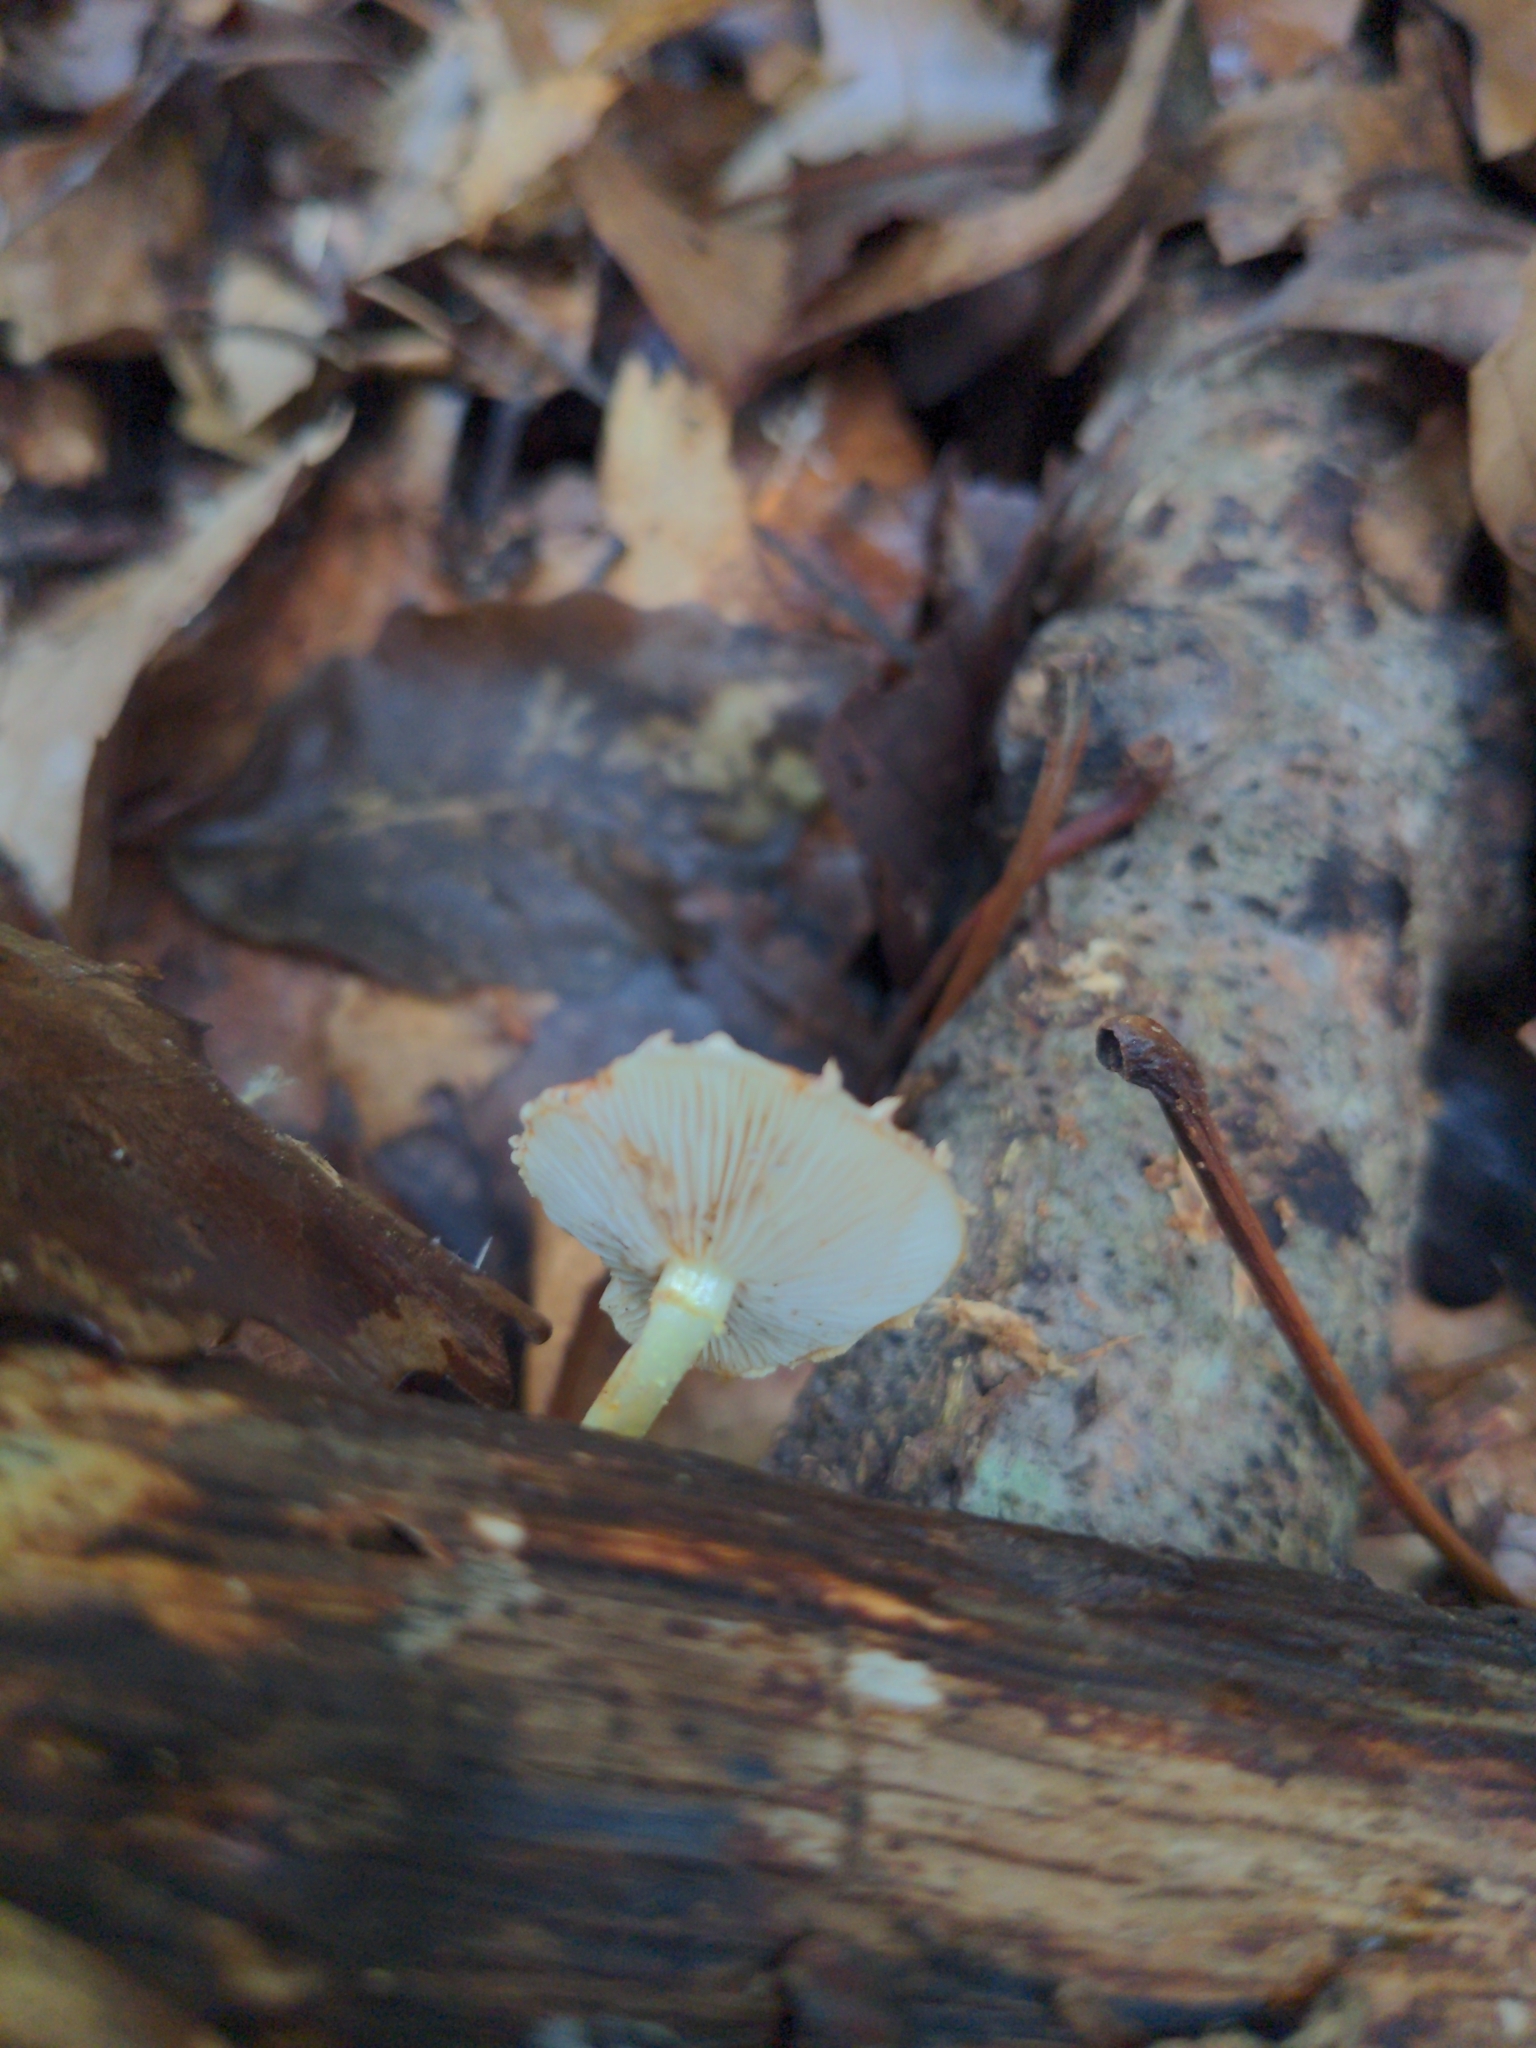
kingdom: Fungi
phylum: Basidiomycota
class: Agaricomycetes
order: Agaricales
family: Strophariaceae
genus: Pholiota
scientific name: Pholiota polychroa
